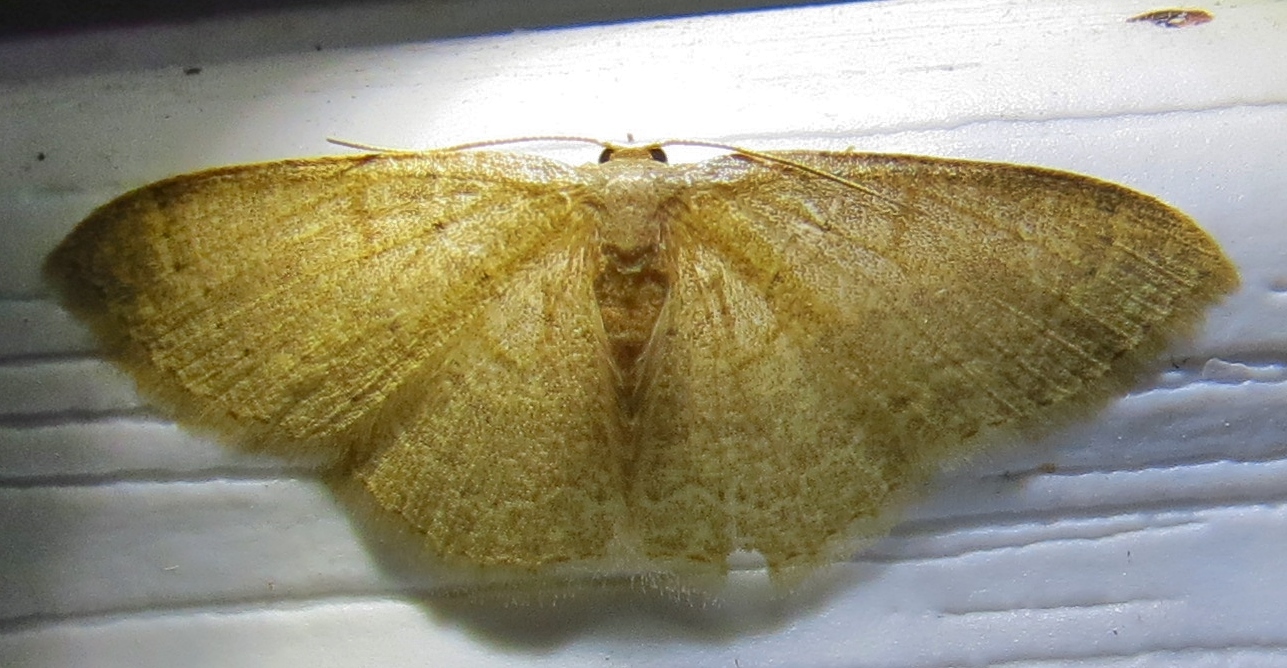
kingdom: Animalia
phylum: Arthropoda
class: Insecta
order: Lepidoptera
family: Geometridae
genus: Pleuroprucha
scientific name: Pleuroprucha insulsaria
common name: Common tan wave
